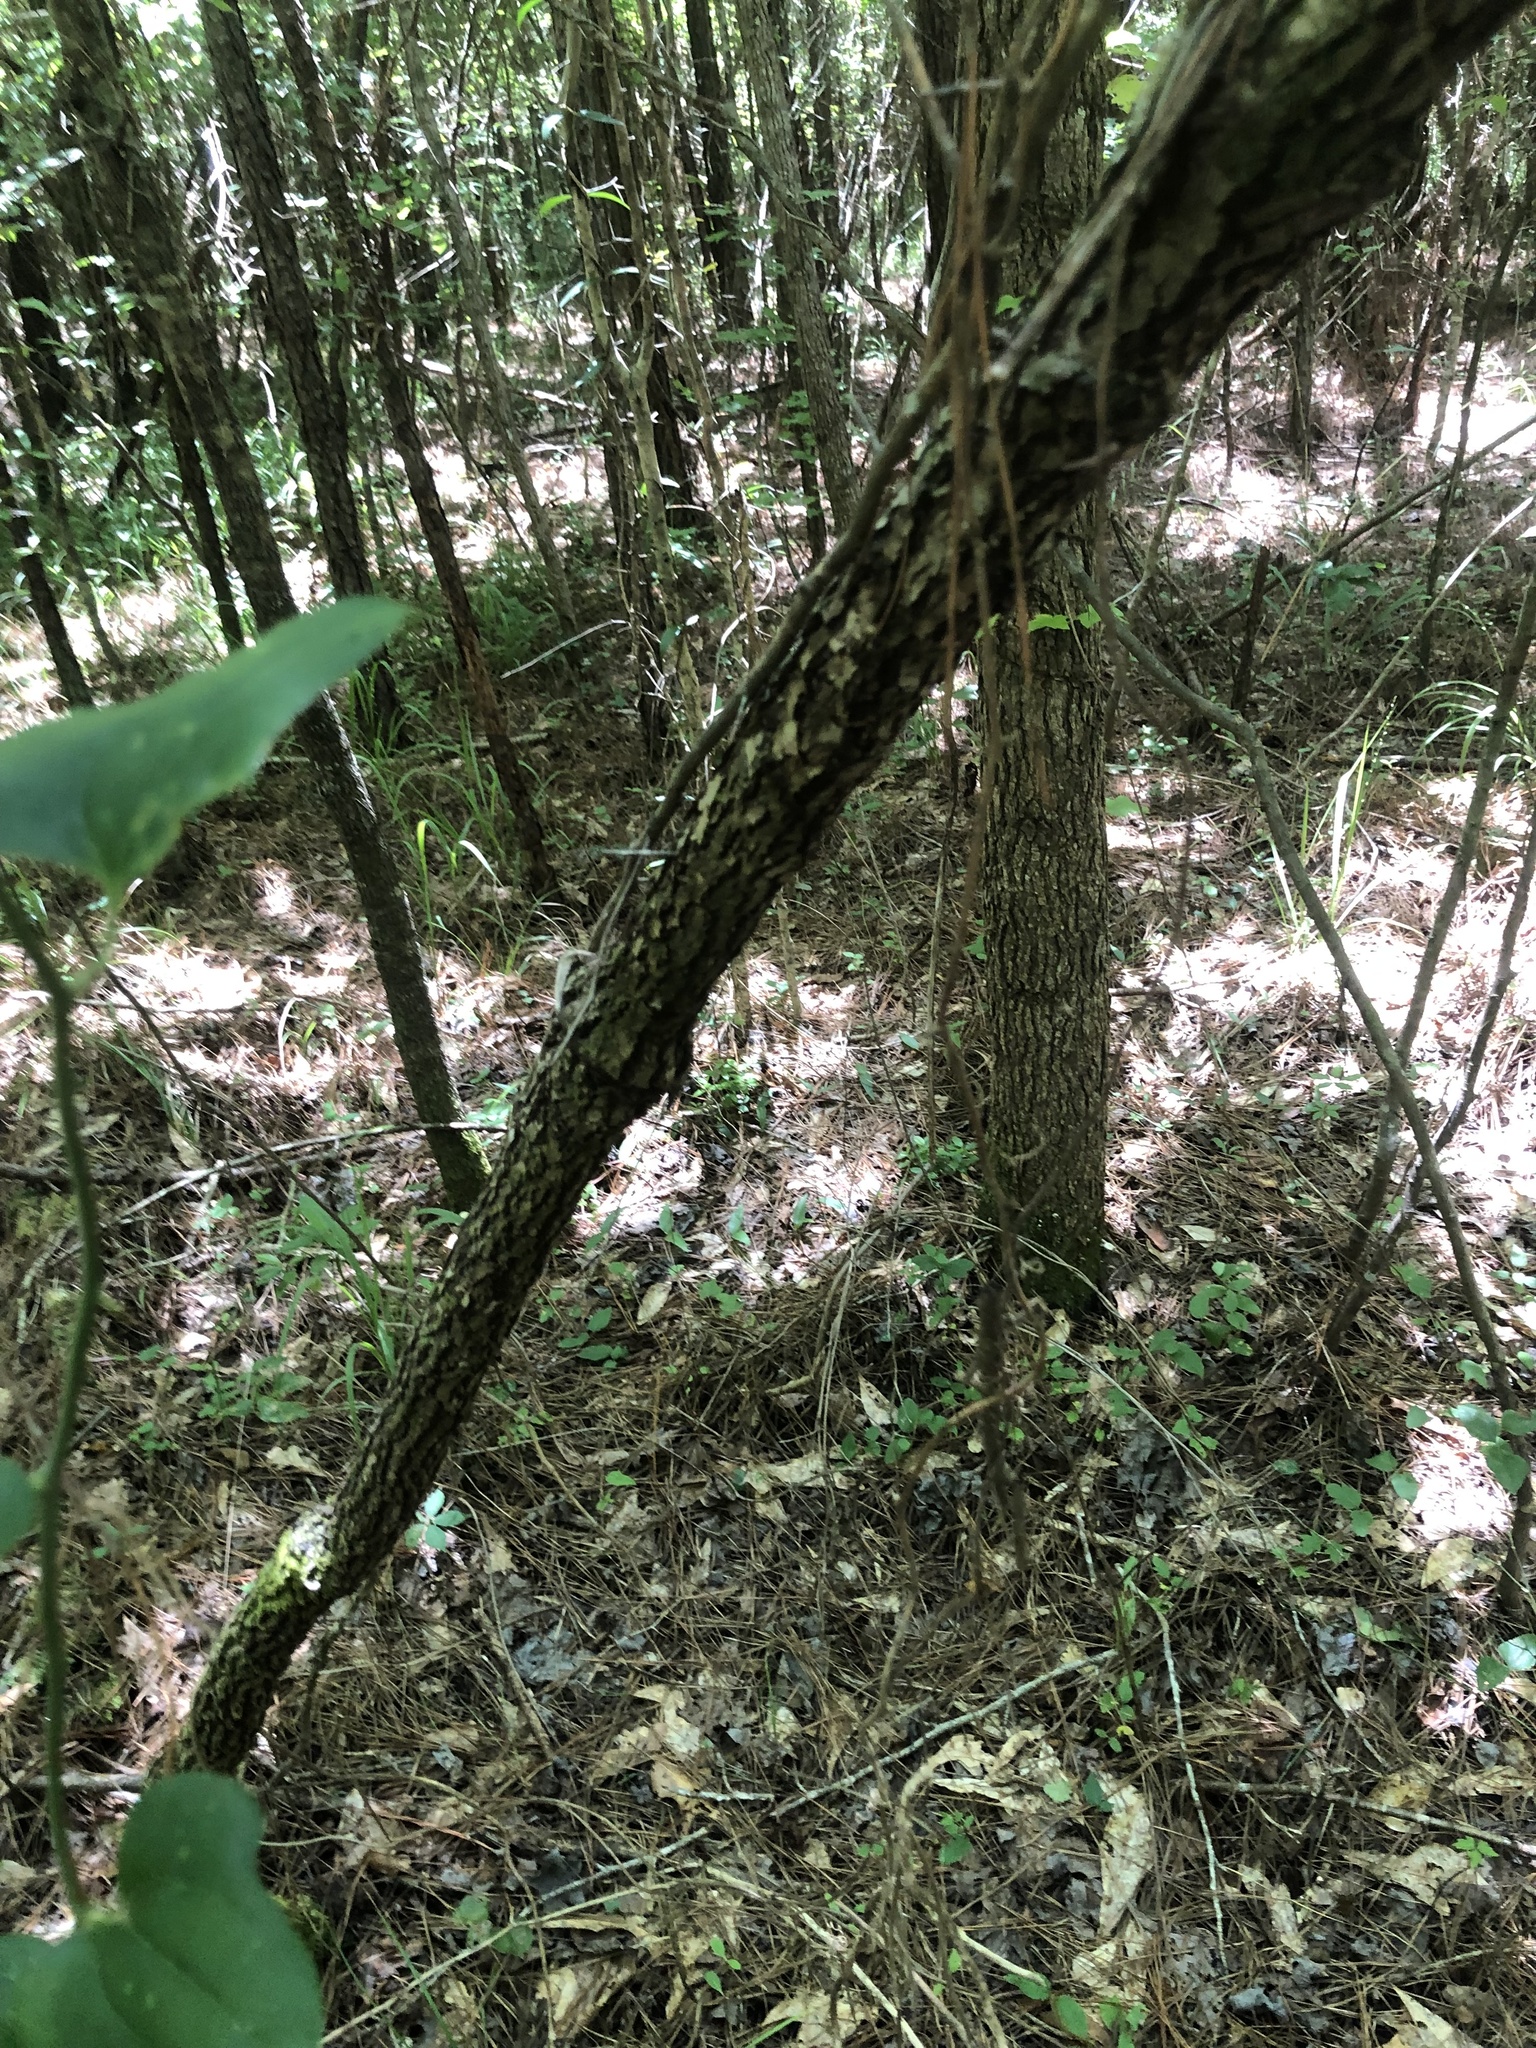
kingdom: Plantae
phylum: Tracheophyta
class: Magnoliopsida
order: Rosales
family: Rosaceae
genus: Crataegus
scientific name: Crataegus pulcherrima
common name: Beautiful hawthorn
